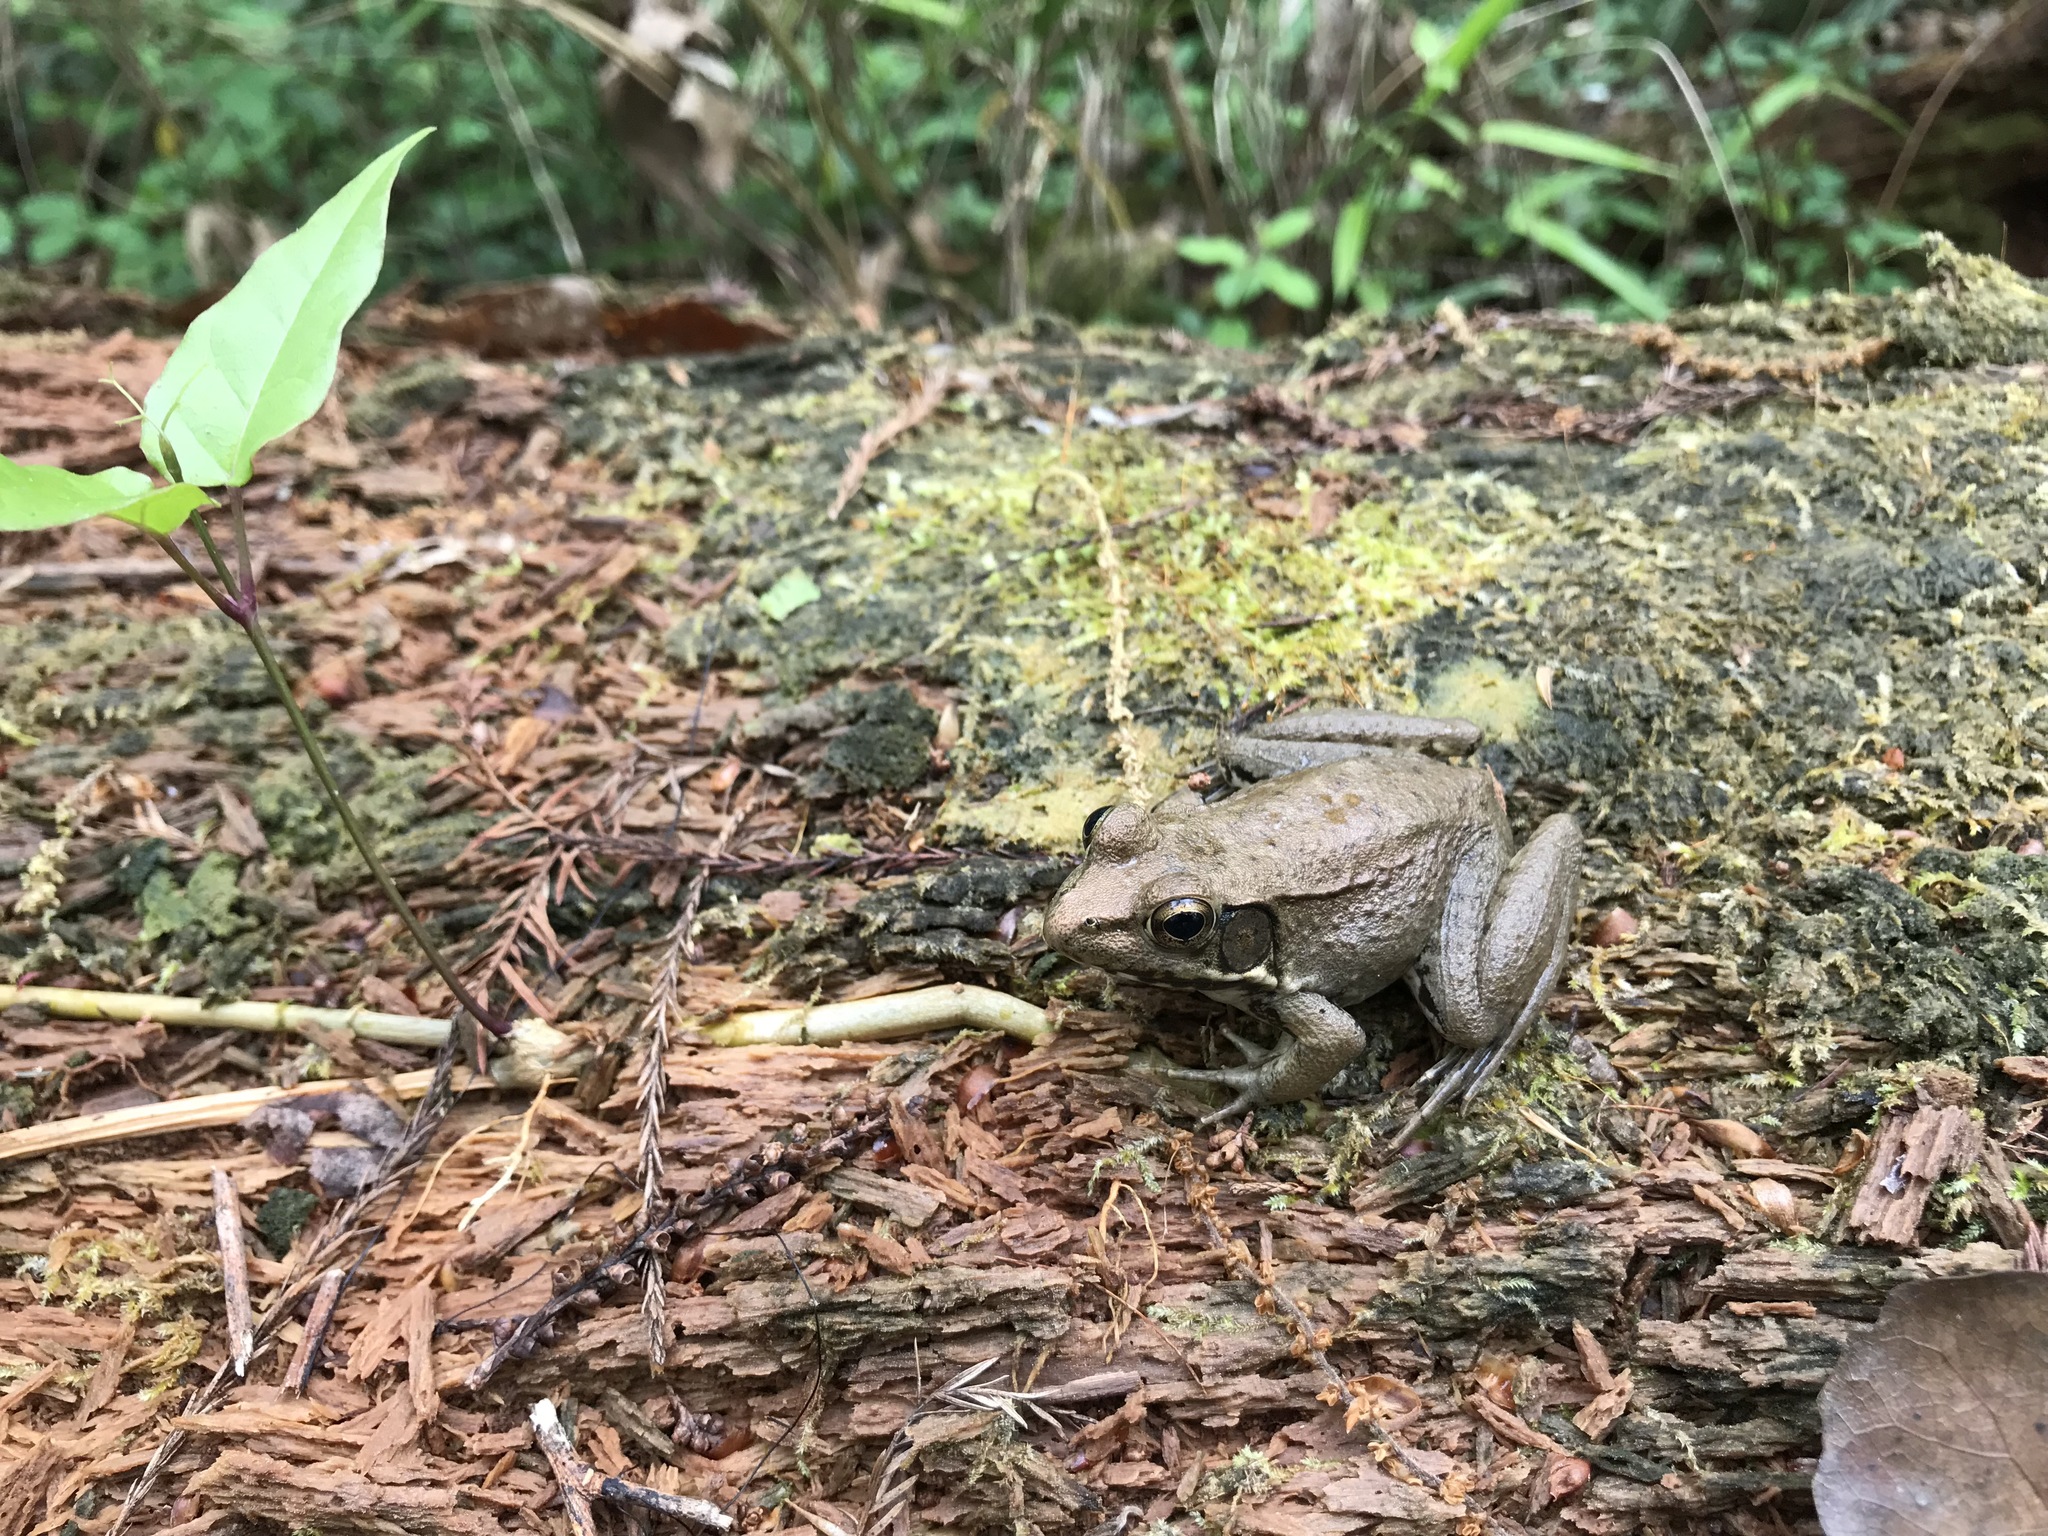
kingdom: Animalia
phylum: Chordata
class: Amphibia
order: Anura
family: Ranidae
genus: Lithobates
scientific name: Lithobates clamitans
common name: Green frog
